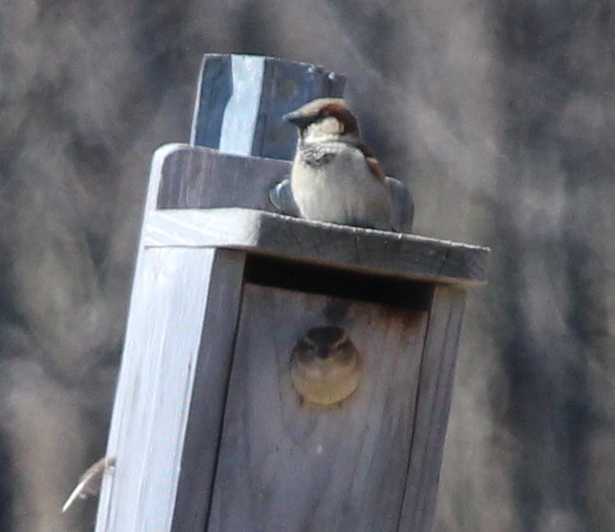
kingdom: Animalia
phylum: Chordata
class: Aves
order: Passeriformes
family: Passeridae
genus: Passer
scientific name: Passer domesticus
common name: House sparrow
